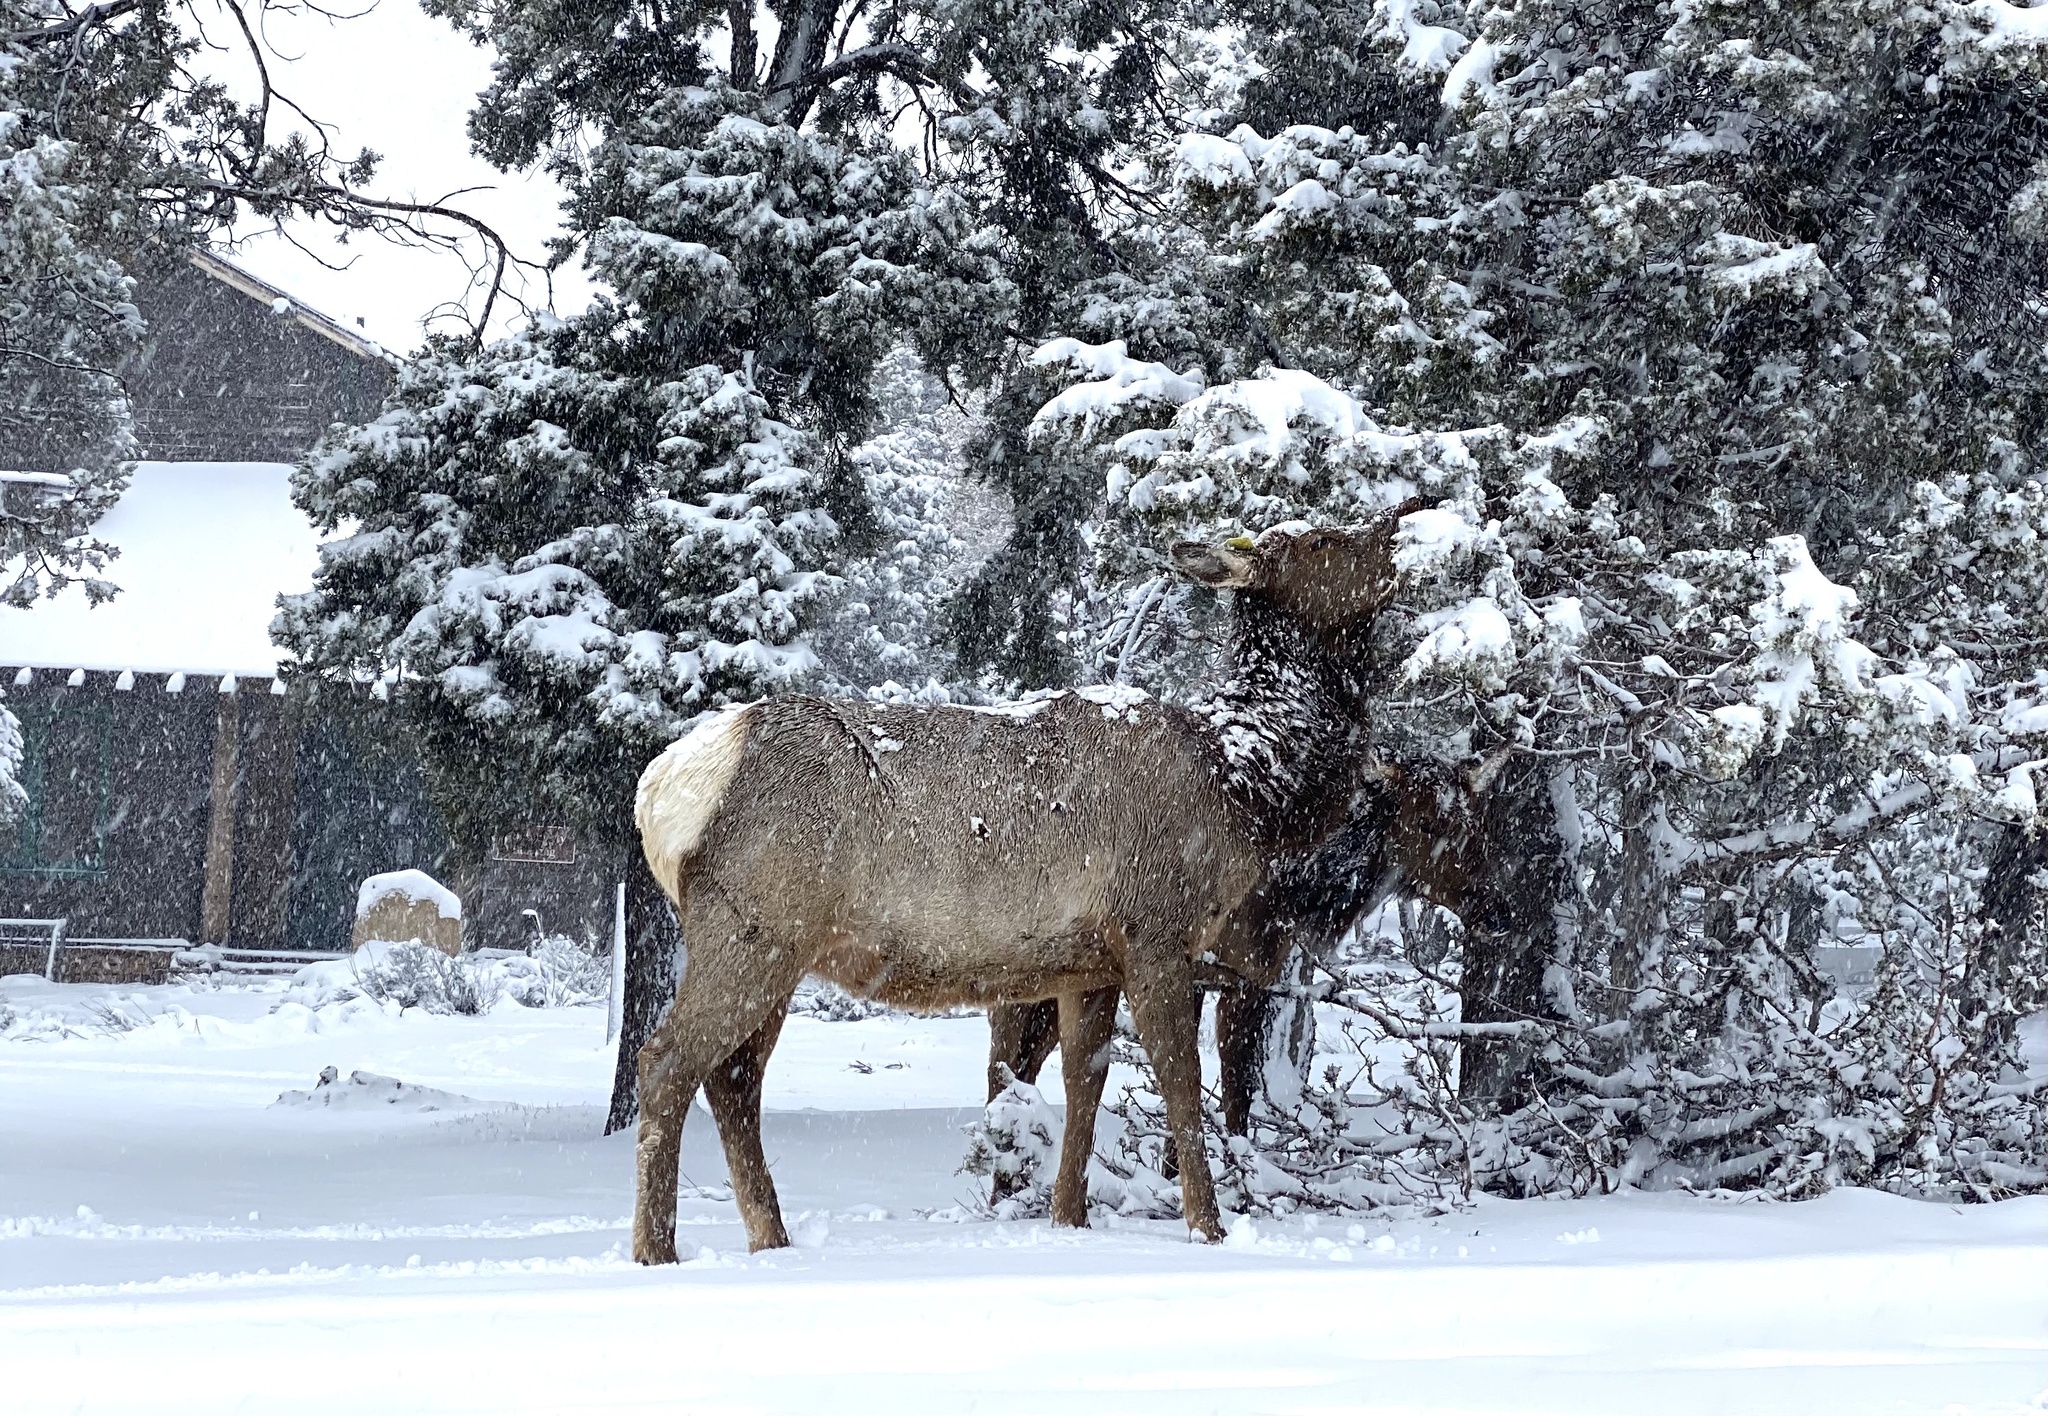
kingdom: Animalia
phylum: Chordata
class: Mammalia
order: Artiodactyla
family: Cervidae
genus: Cervus
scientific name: Cervus elaphus
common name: Red deer
